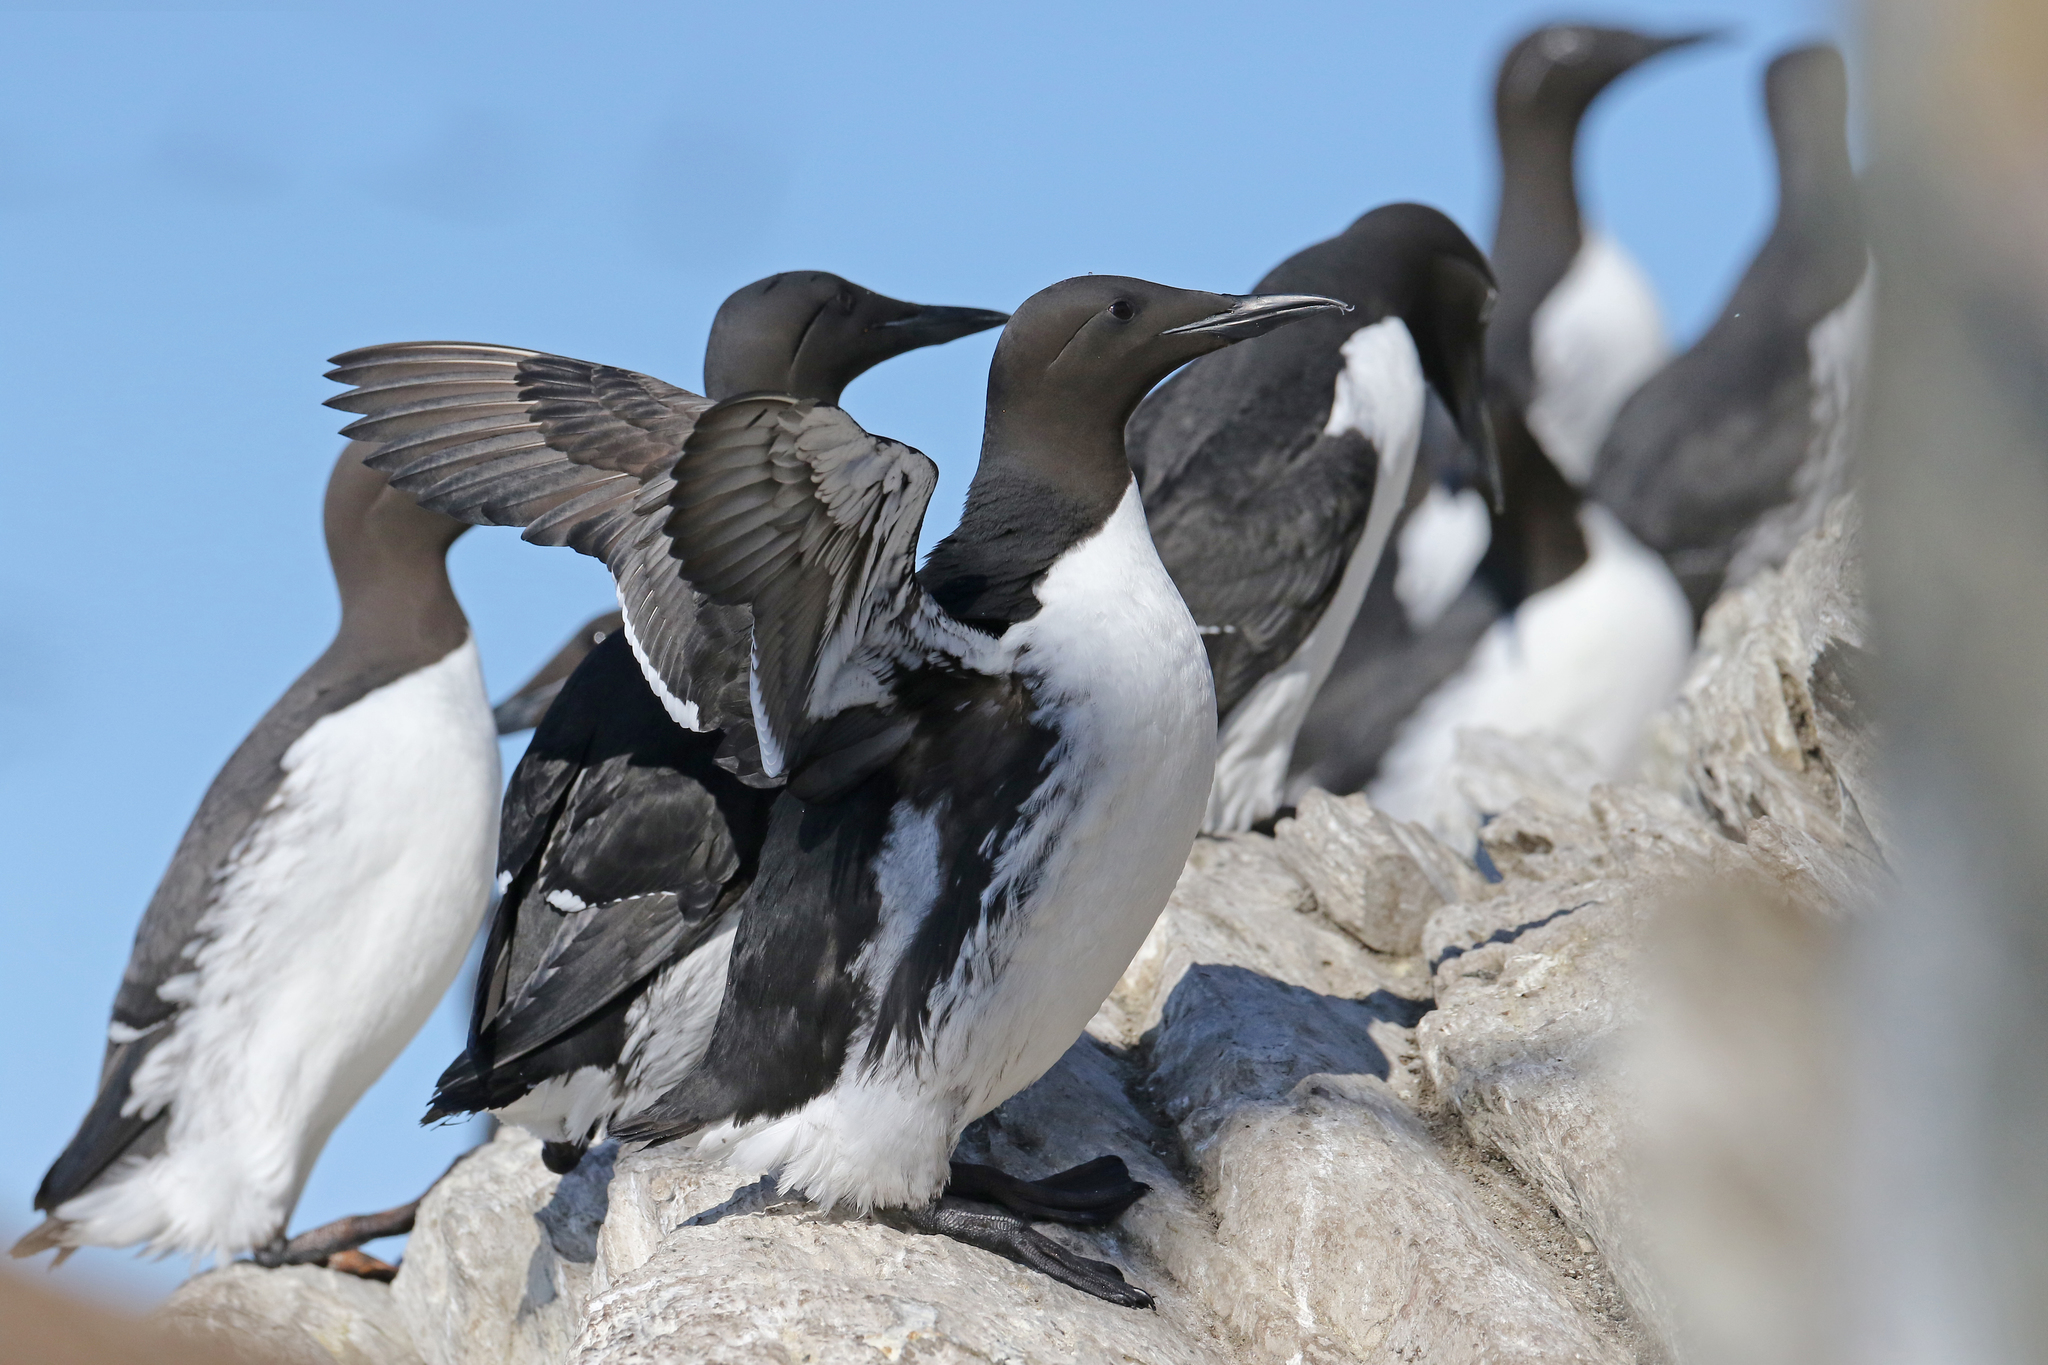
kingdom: Animalia
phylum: Chordata
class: Aves
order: Charadriiformes
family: Alcidae
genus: Uria
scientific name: Uria aalge
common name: Common murre
